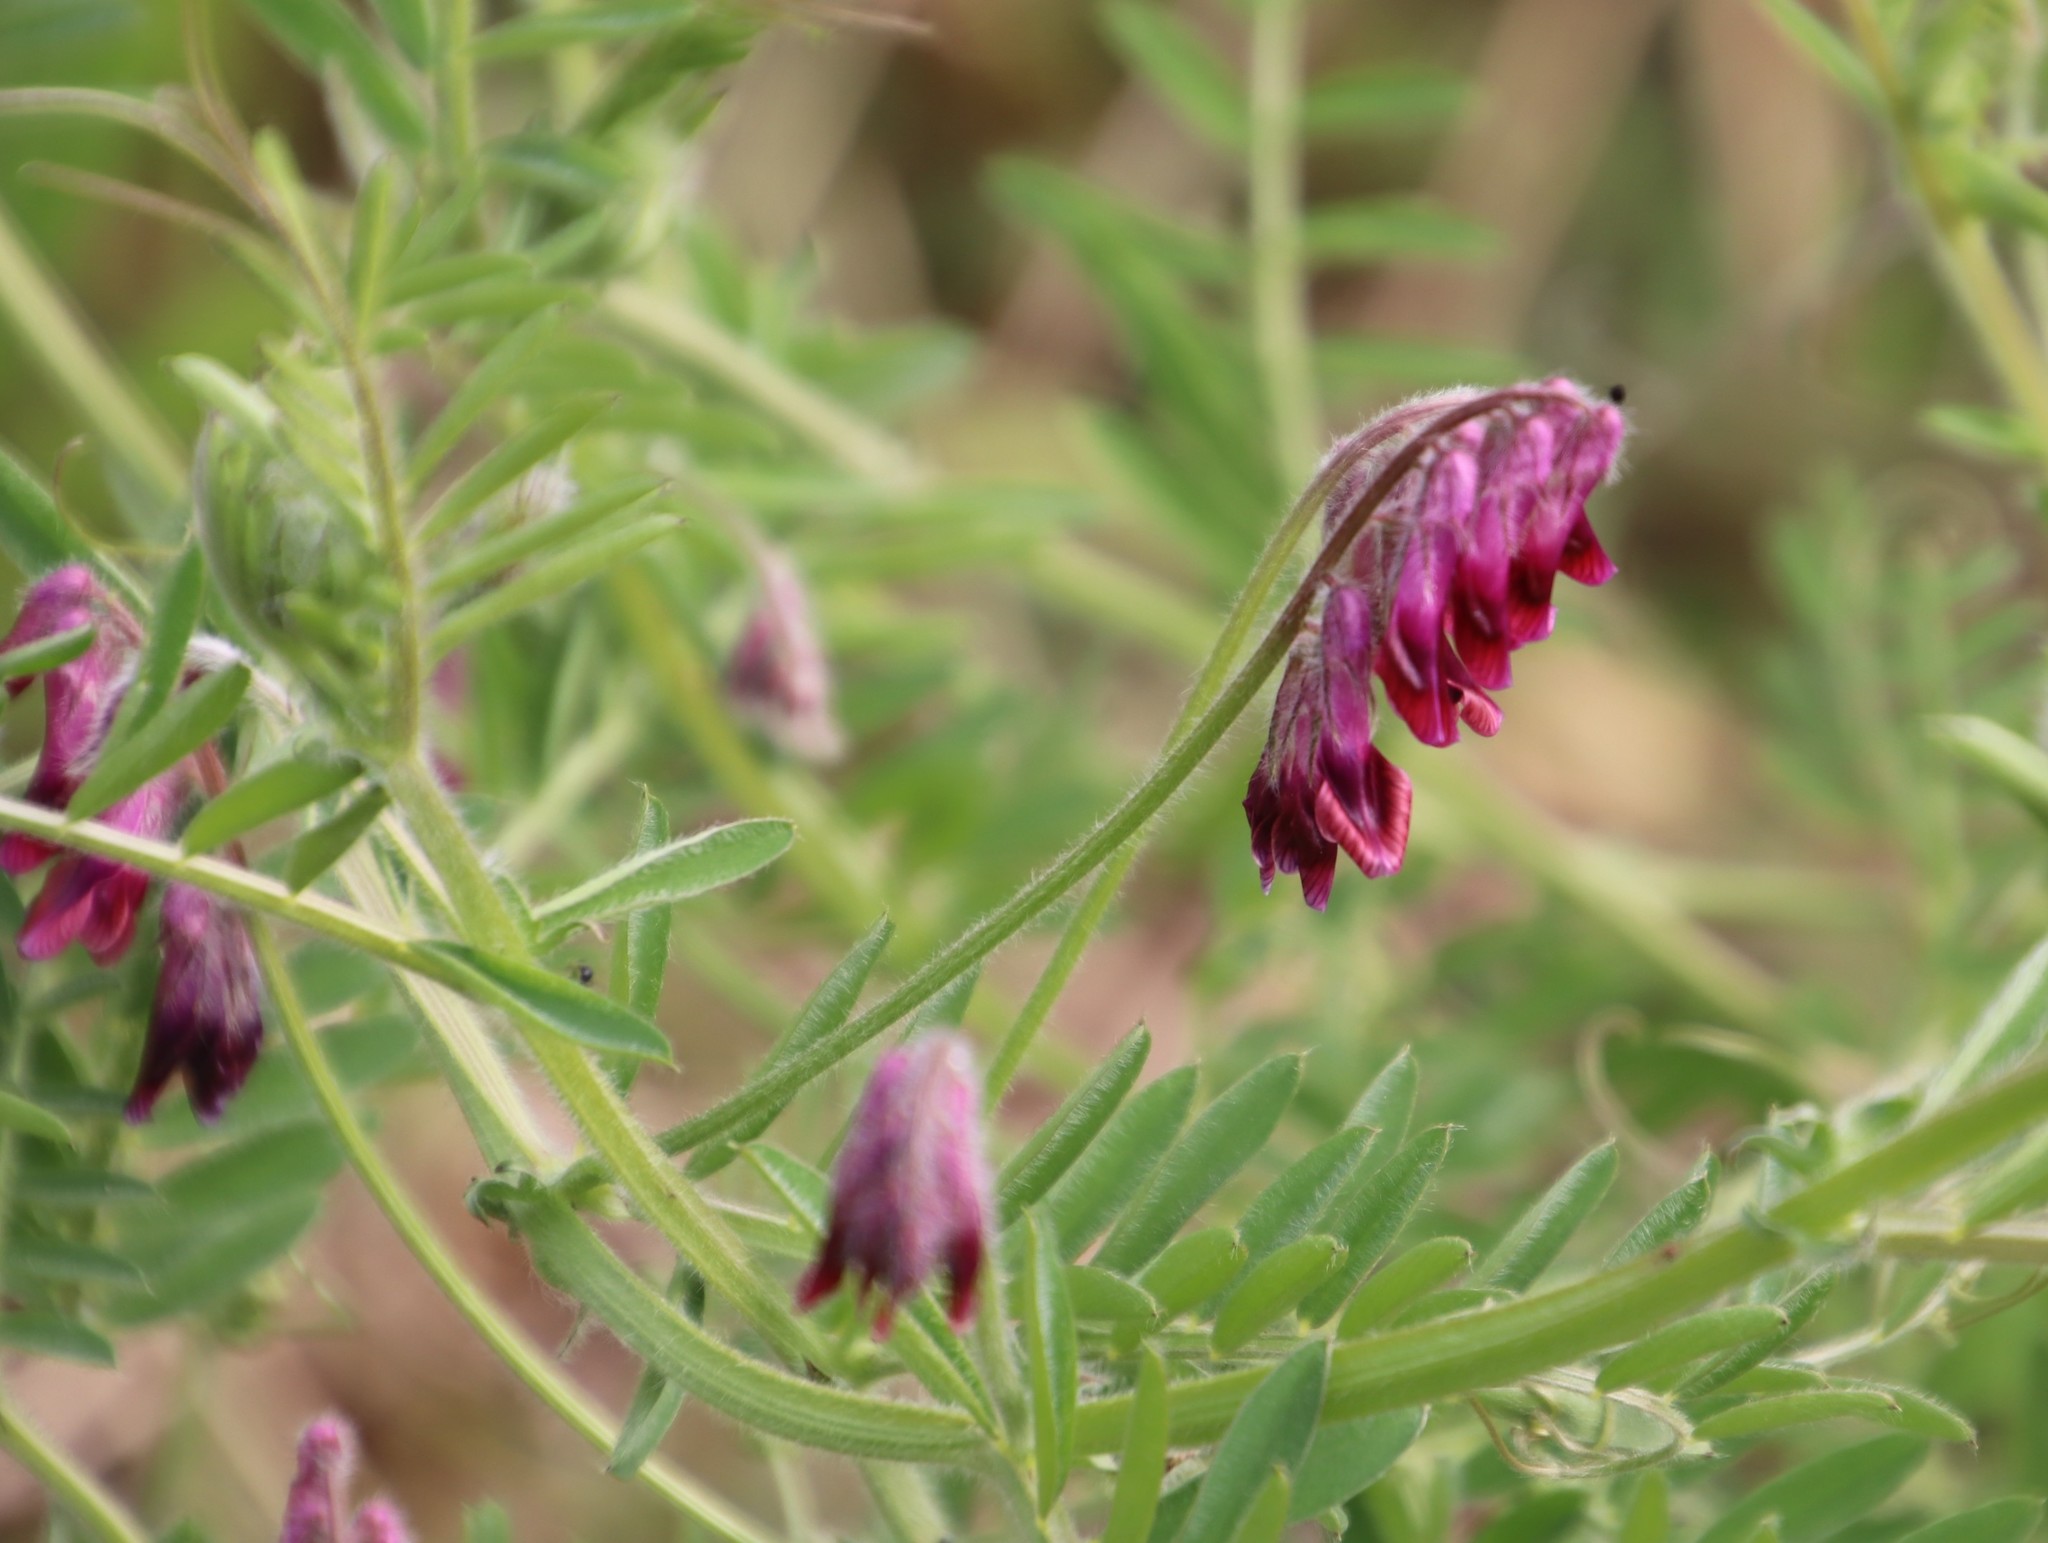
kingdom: Plantae
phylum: Tracheophyta
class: Magnoliopsida
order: Fabales
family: Fabaceae
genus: Vicia
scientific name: Vicia benghalensis
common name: Purple vetch
